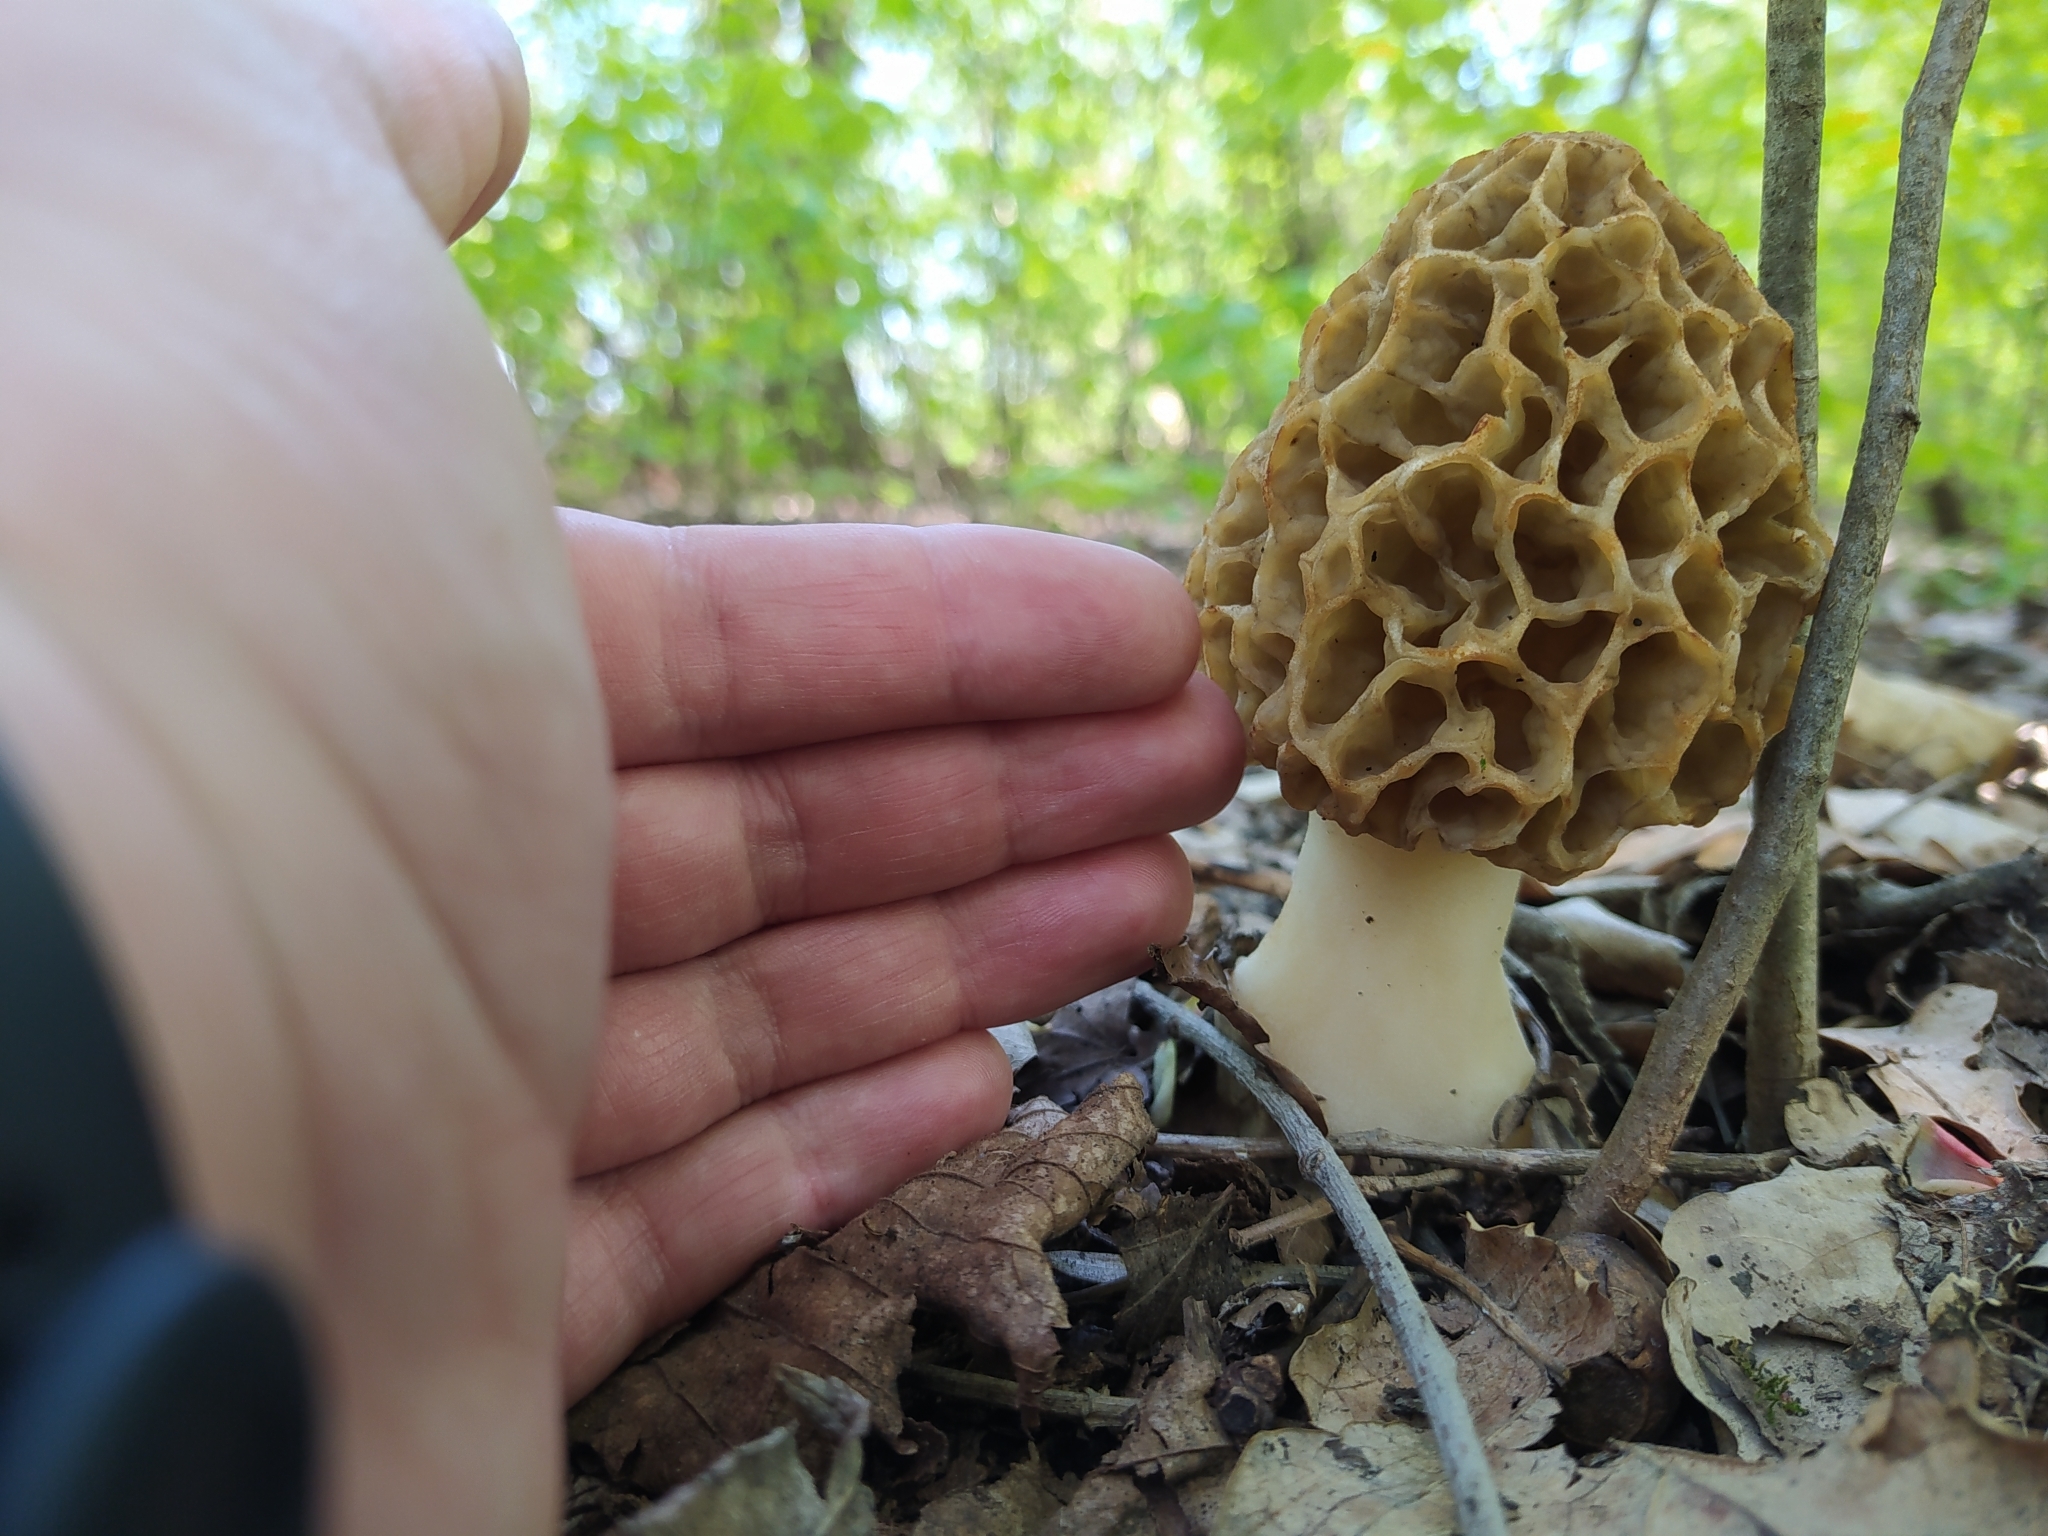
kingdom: Fungi
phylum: Ascomycota
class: Pezizomycetes
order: Pezizales
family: Morchellaceae
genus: Morchella
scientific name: Morchella
